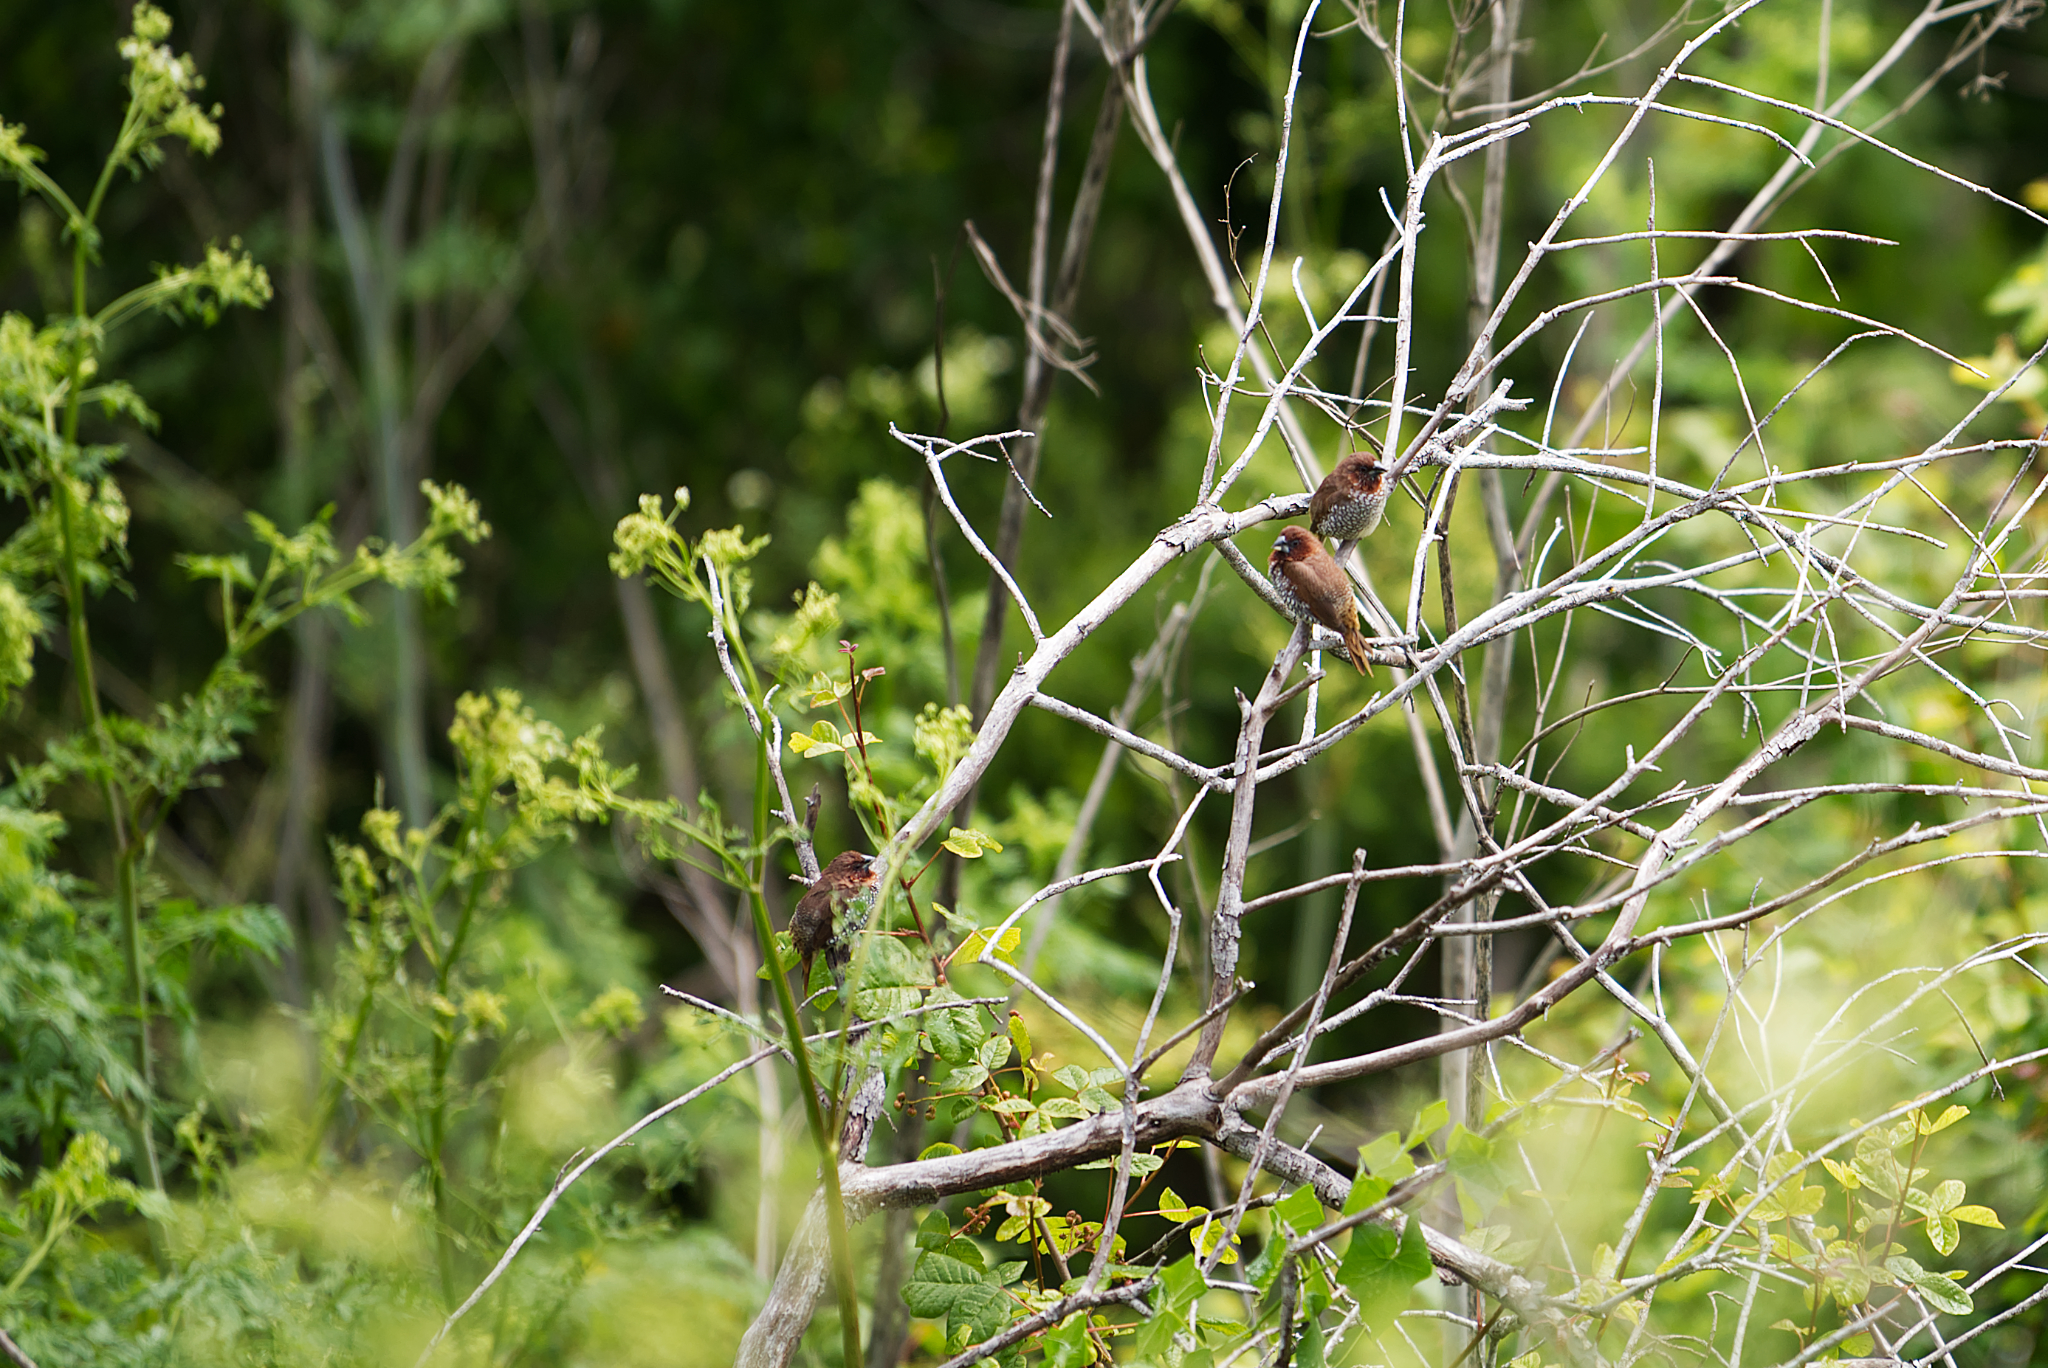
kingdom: Animalia
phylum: Chordata
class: Aves
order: Passeriformes
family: Estrildidae
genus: Lonchura
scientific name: Lonchura punctulata
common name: Scaly-breasted munia
